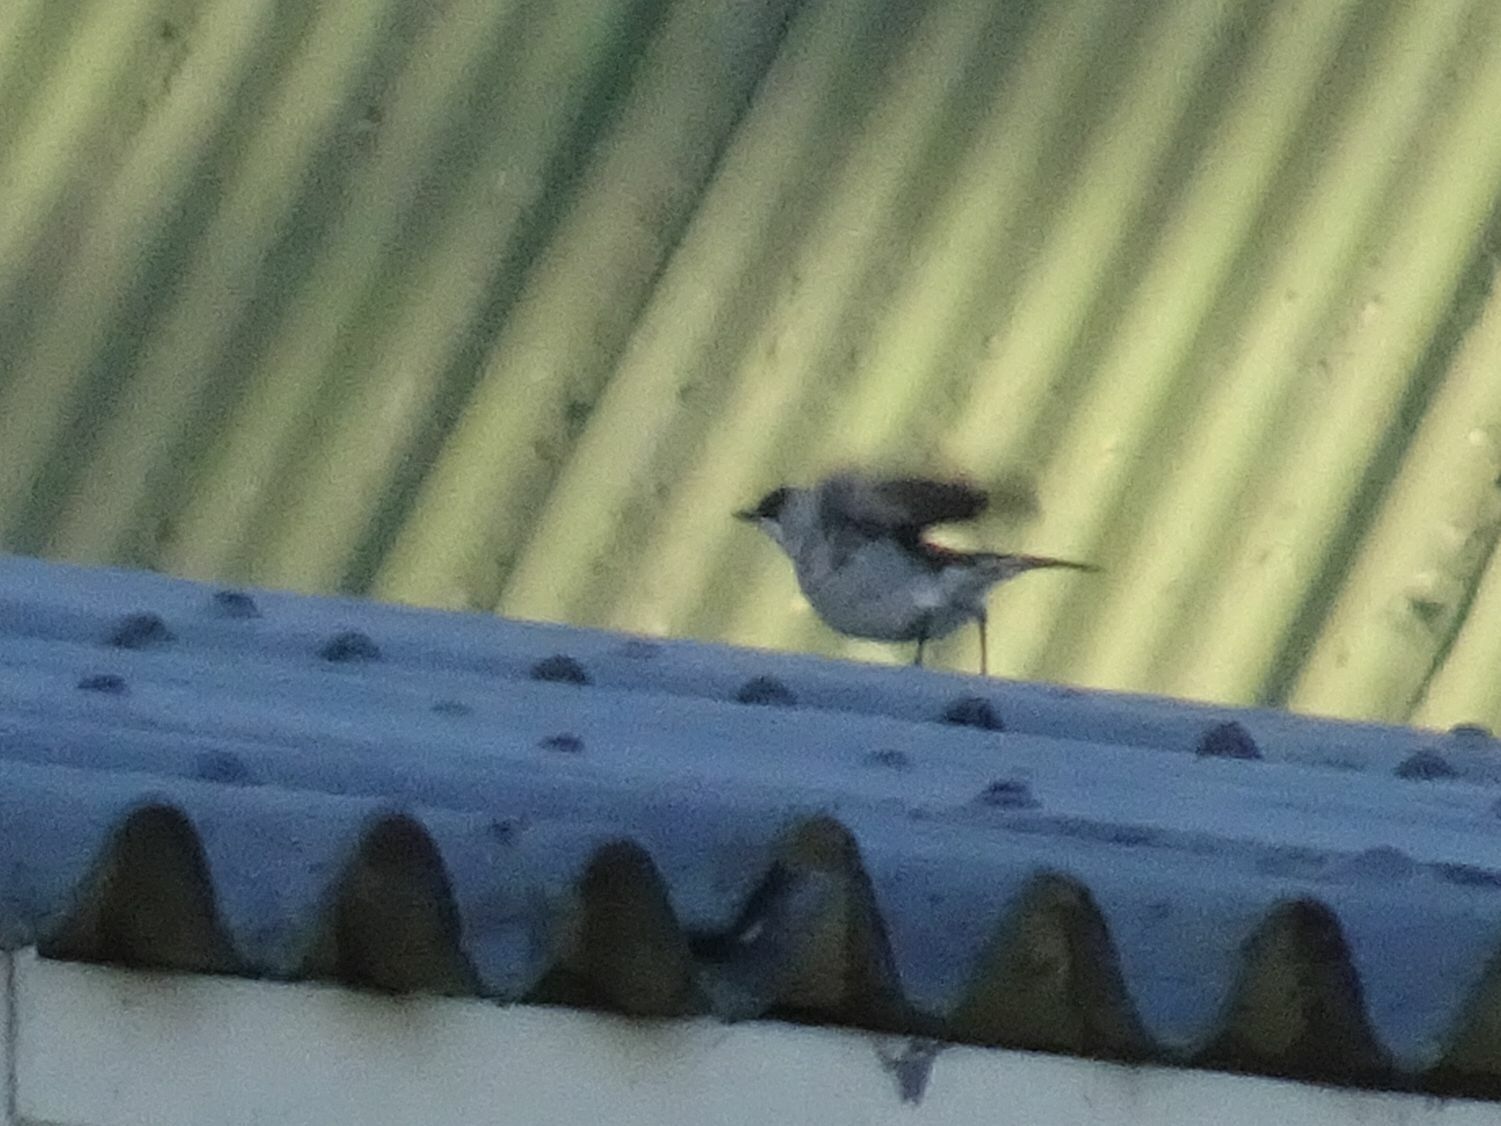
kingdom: Animalia
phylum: Chordata
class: Aves
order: Passeriformes
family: Muscicapidae
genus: Sigelus
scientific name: Sigelus silens
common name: Fiscal flycatcher
